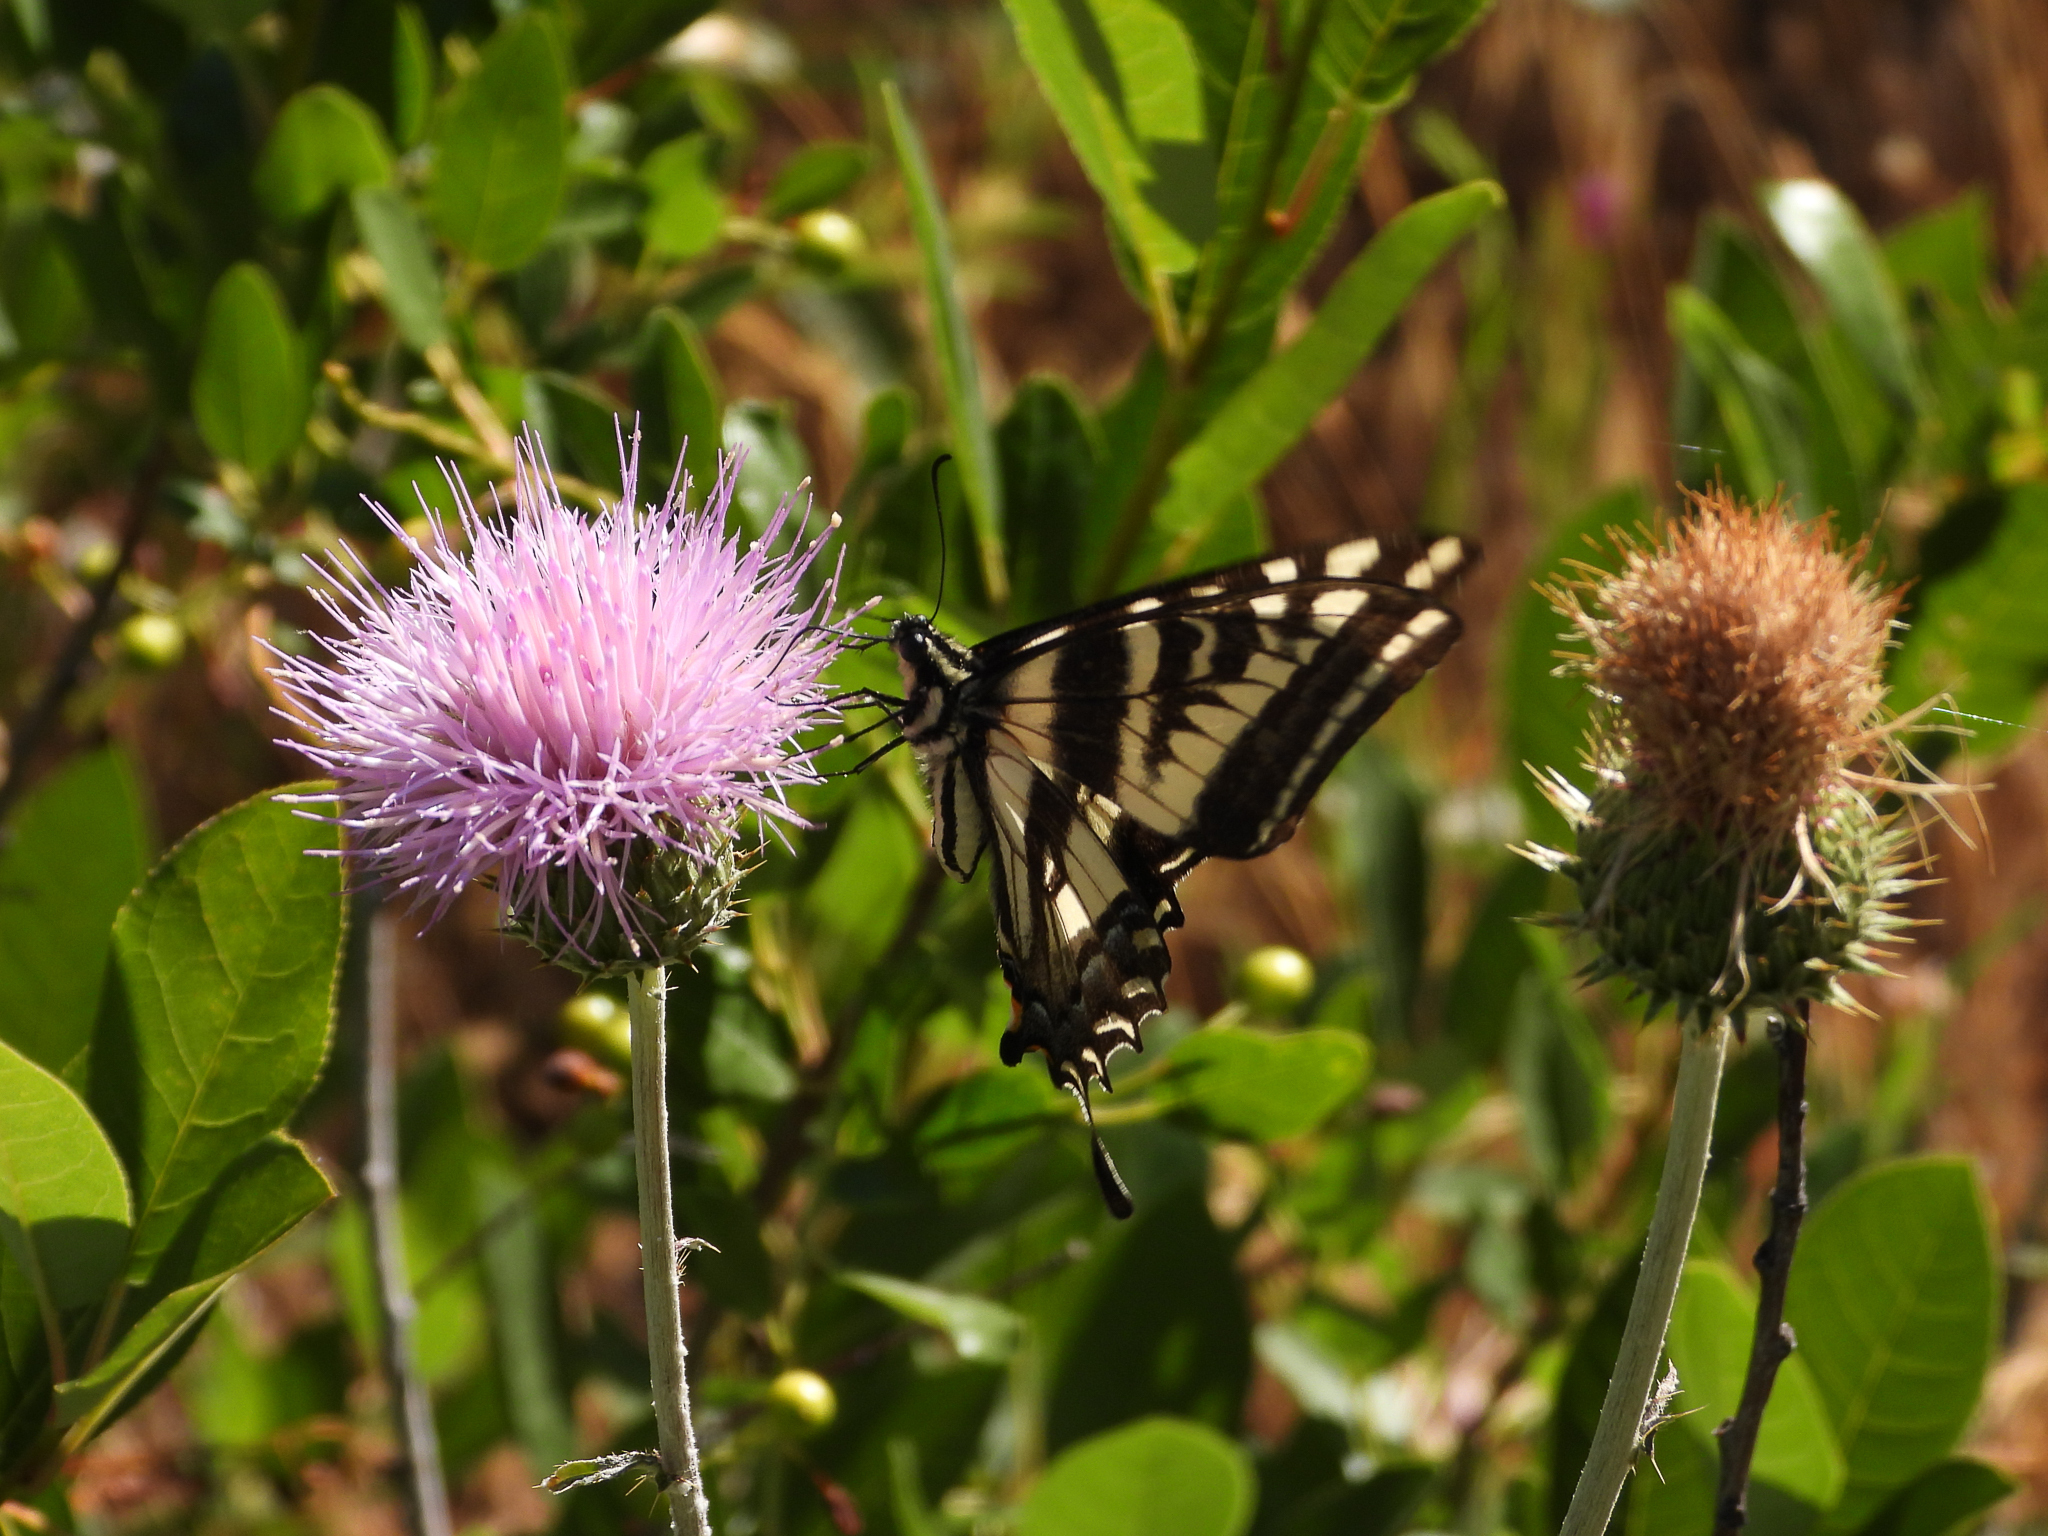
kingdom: Animalia
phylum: Arthropoda
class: Insecta
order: Lepidoptera
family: Papilionidae
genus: Papilio
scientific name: Papilio eurymedon
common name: Pale tiger swallowtail
